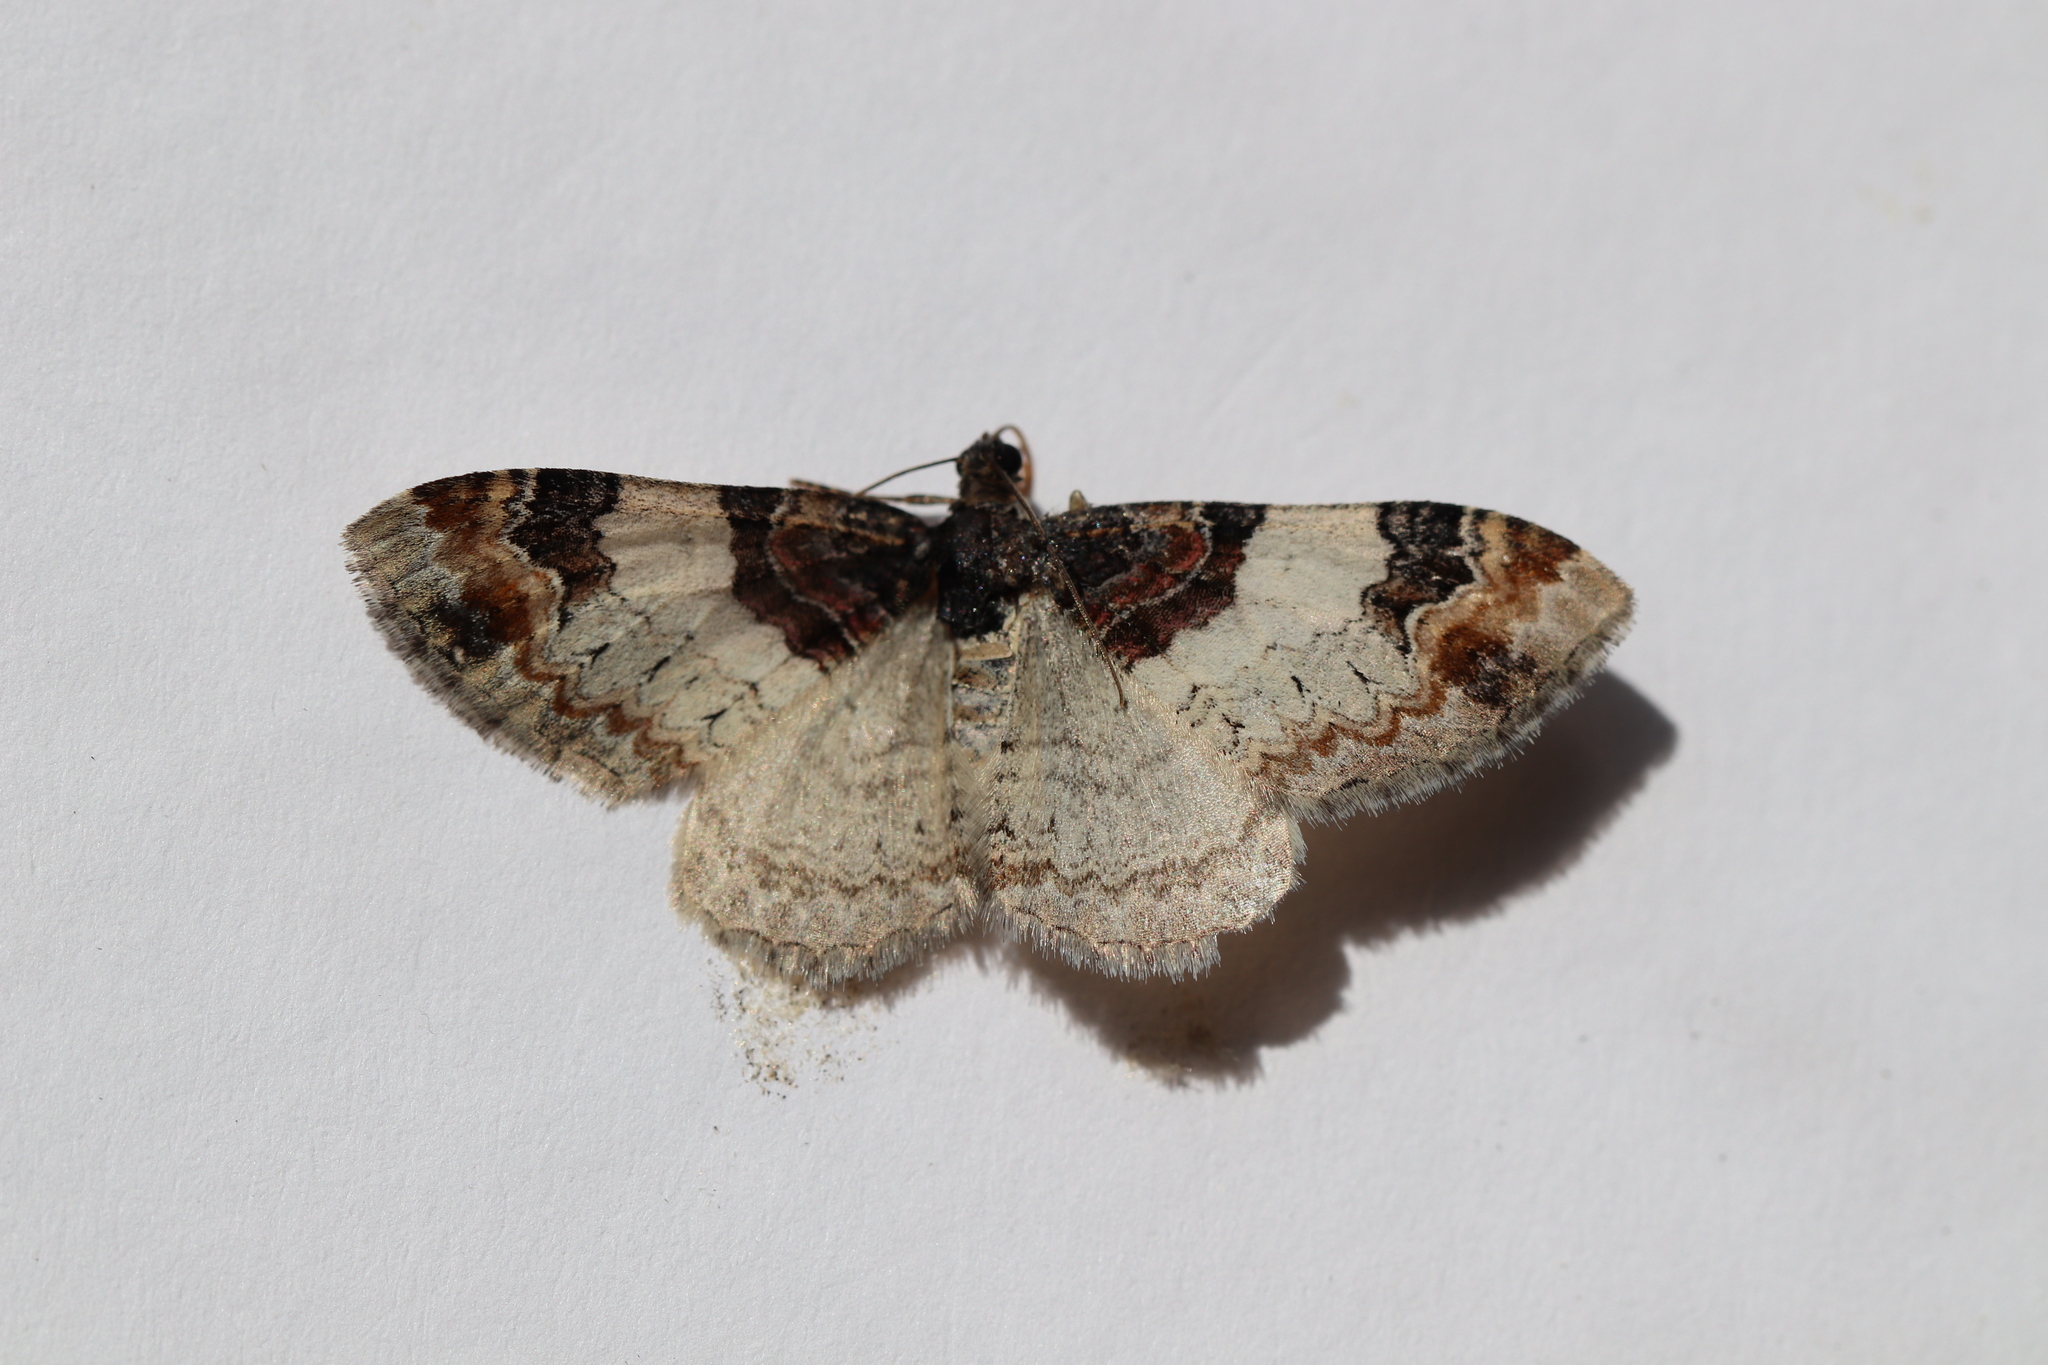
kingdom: Animalia
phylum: Arthropoda
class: Insecta
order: Lepidoptera
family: Geometridae
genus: Catarhoe
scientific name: Catarhoe cuculata
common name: Royal mantle
